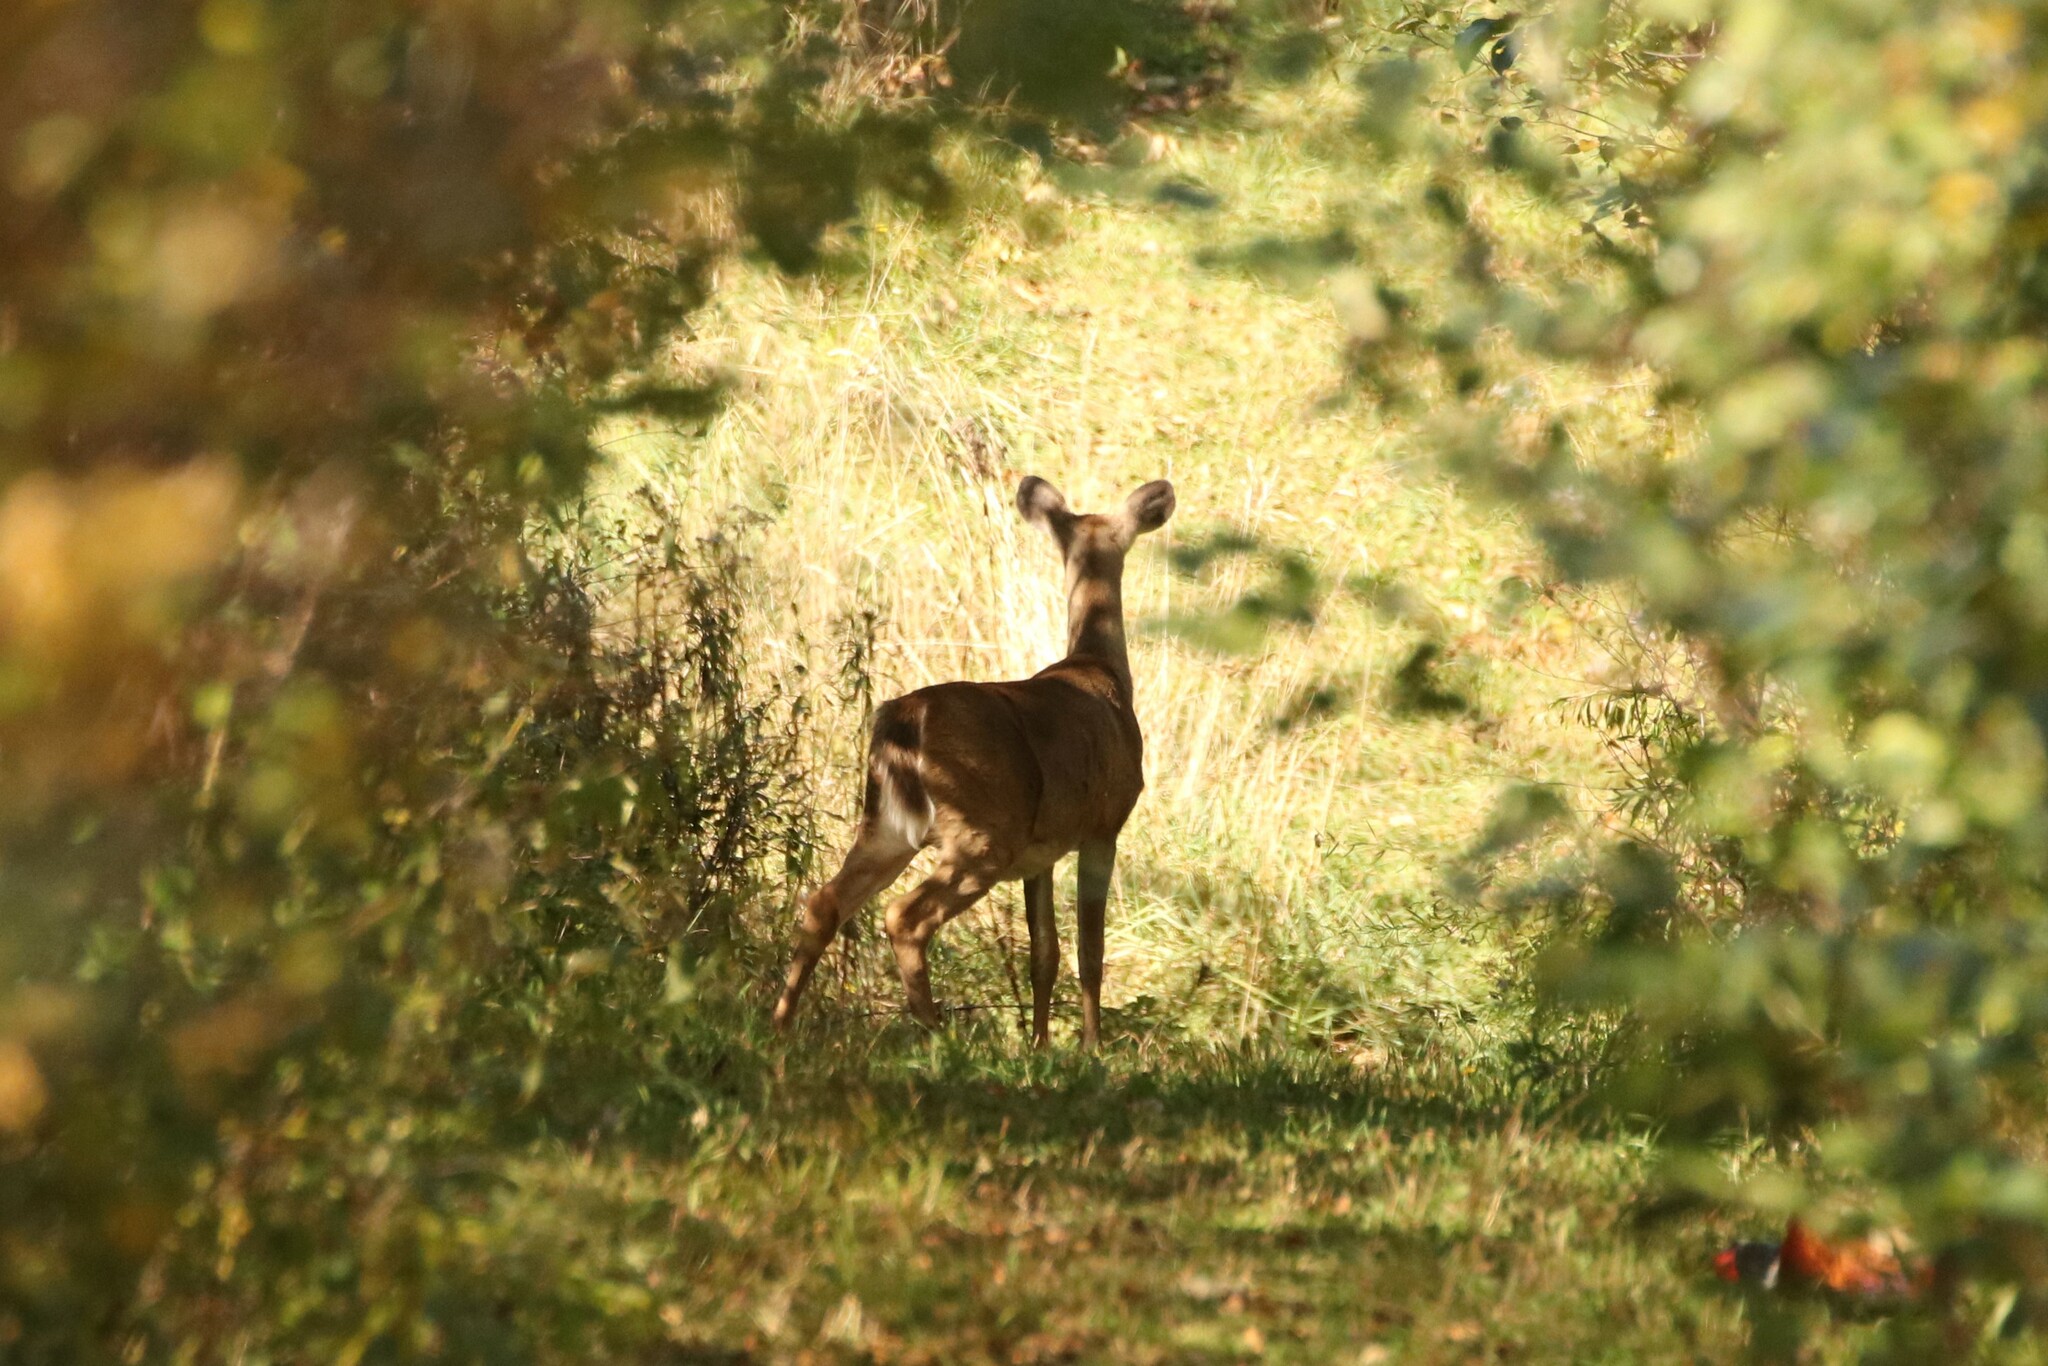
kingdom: Animalia
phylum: Chordata
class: Mammalia
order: Artiodactyla
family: Cervidae
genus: Odocoileus
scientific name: Odocoileus virginianus
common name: White-tailed deer
